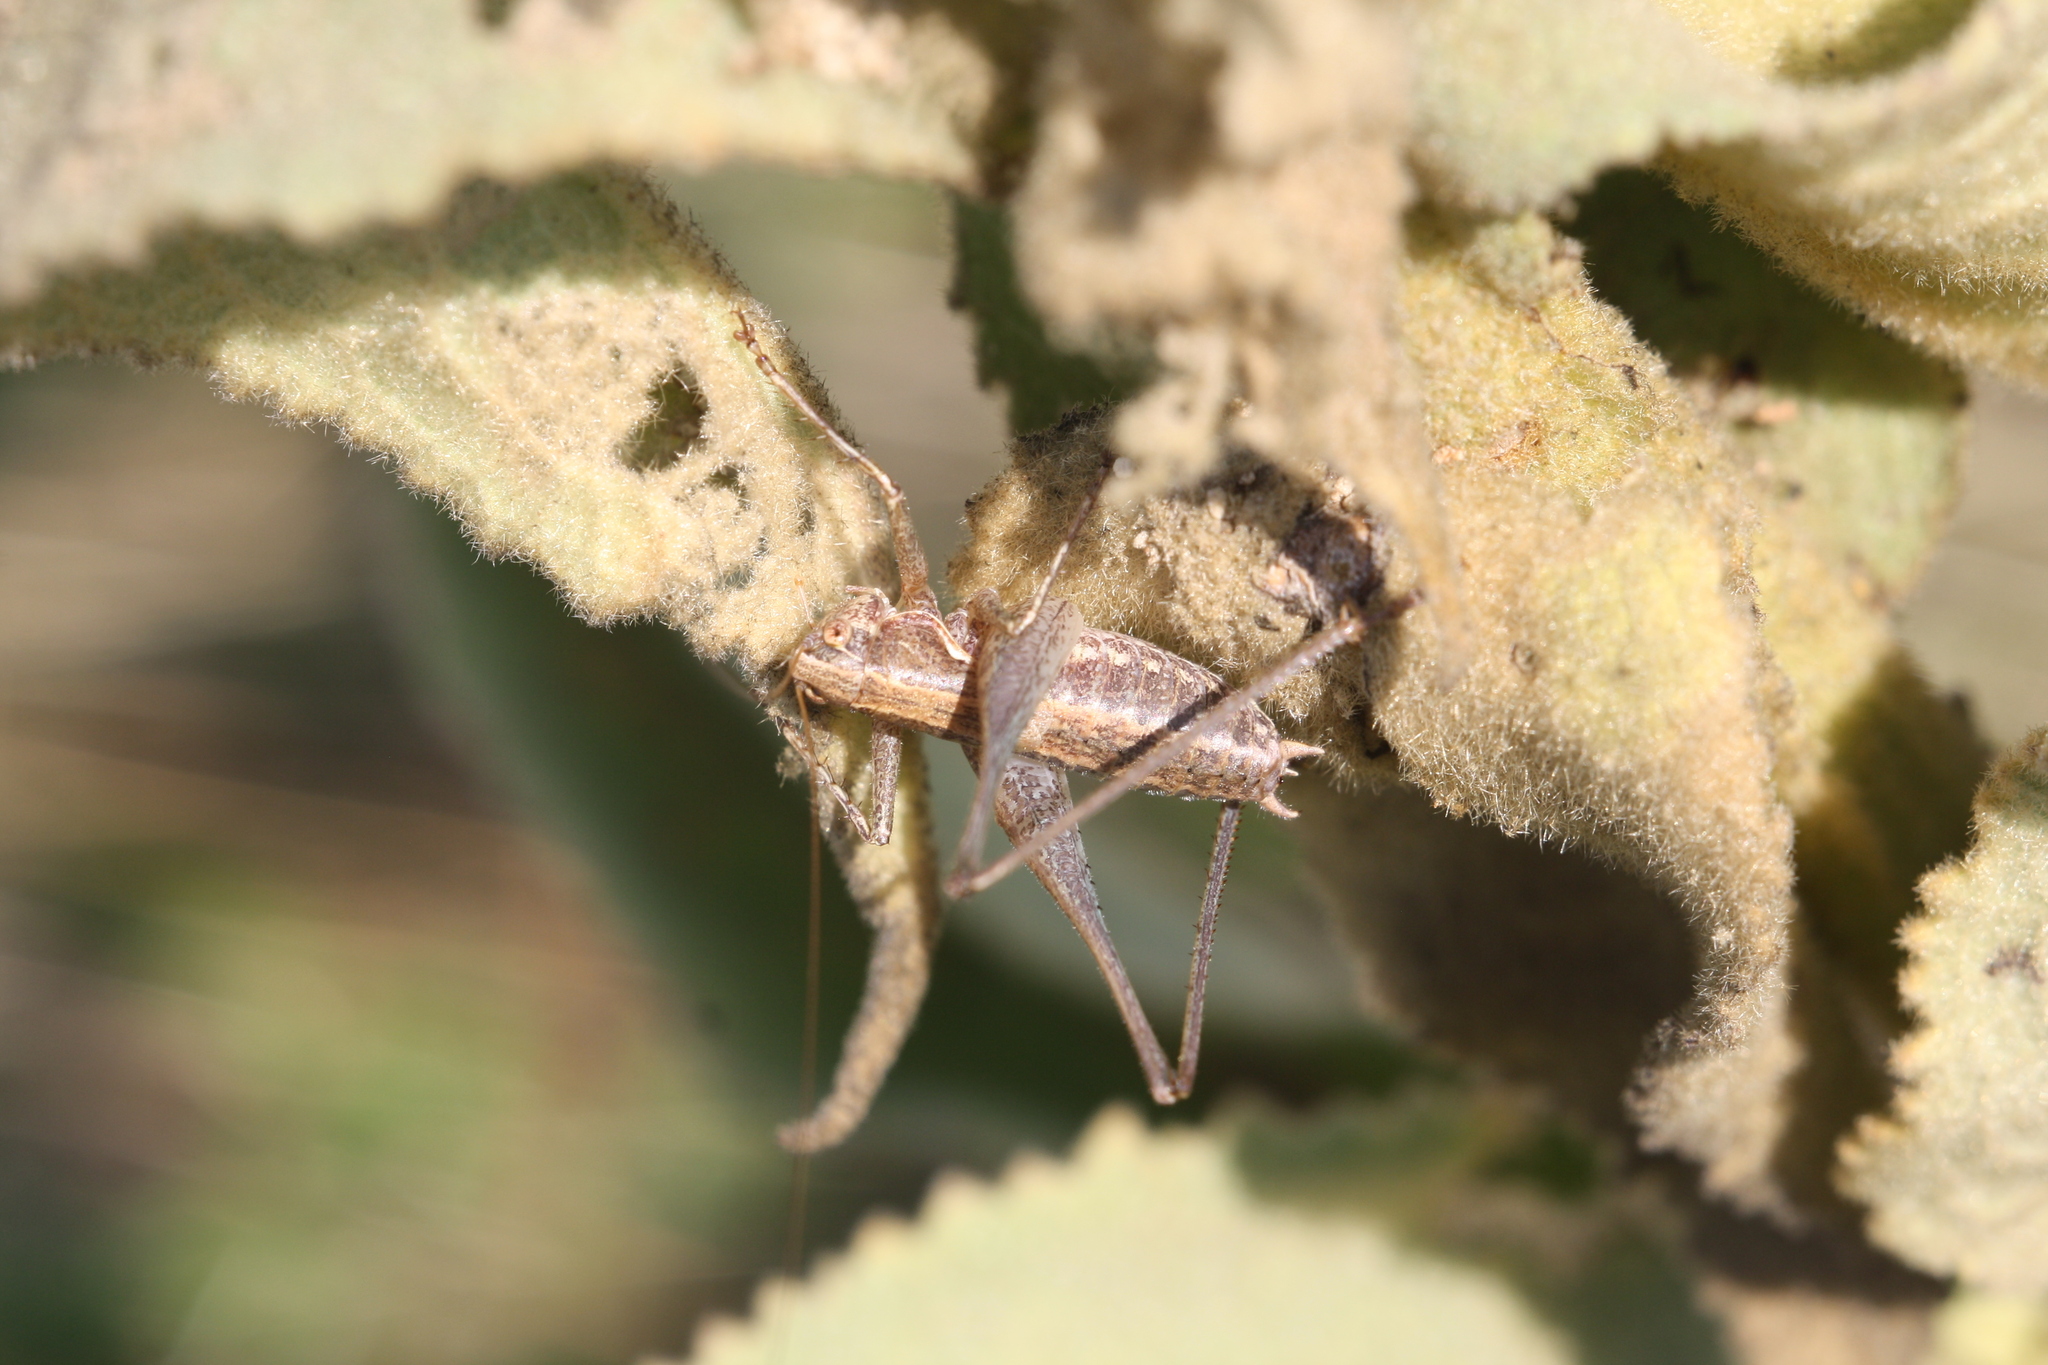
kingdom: Animalia
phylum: Arthropoda
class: Insecta
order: Orthoptera
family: Tettigoniidae
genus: Rhacocleis
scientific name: Rhacocleis germanica
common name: Mediterranean bush-cricket
